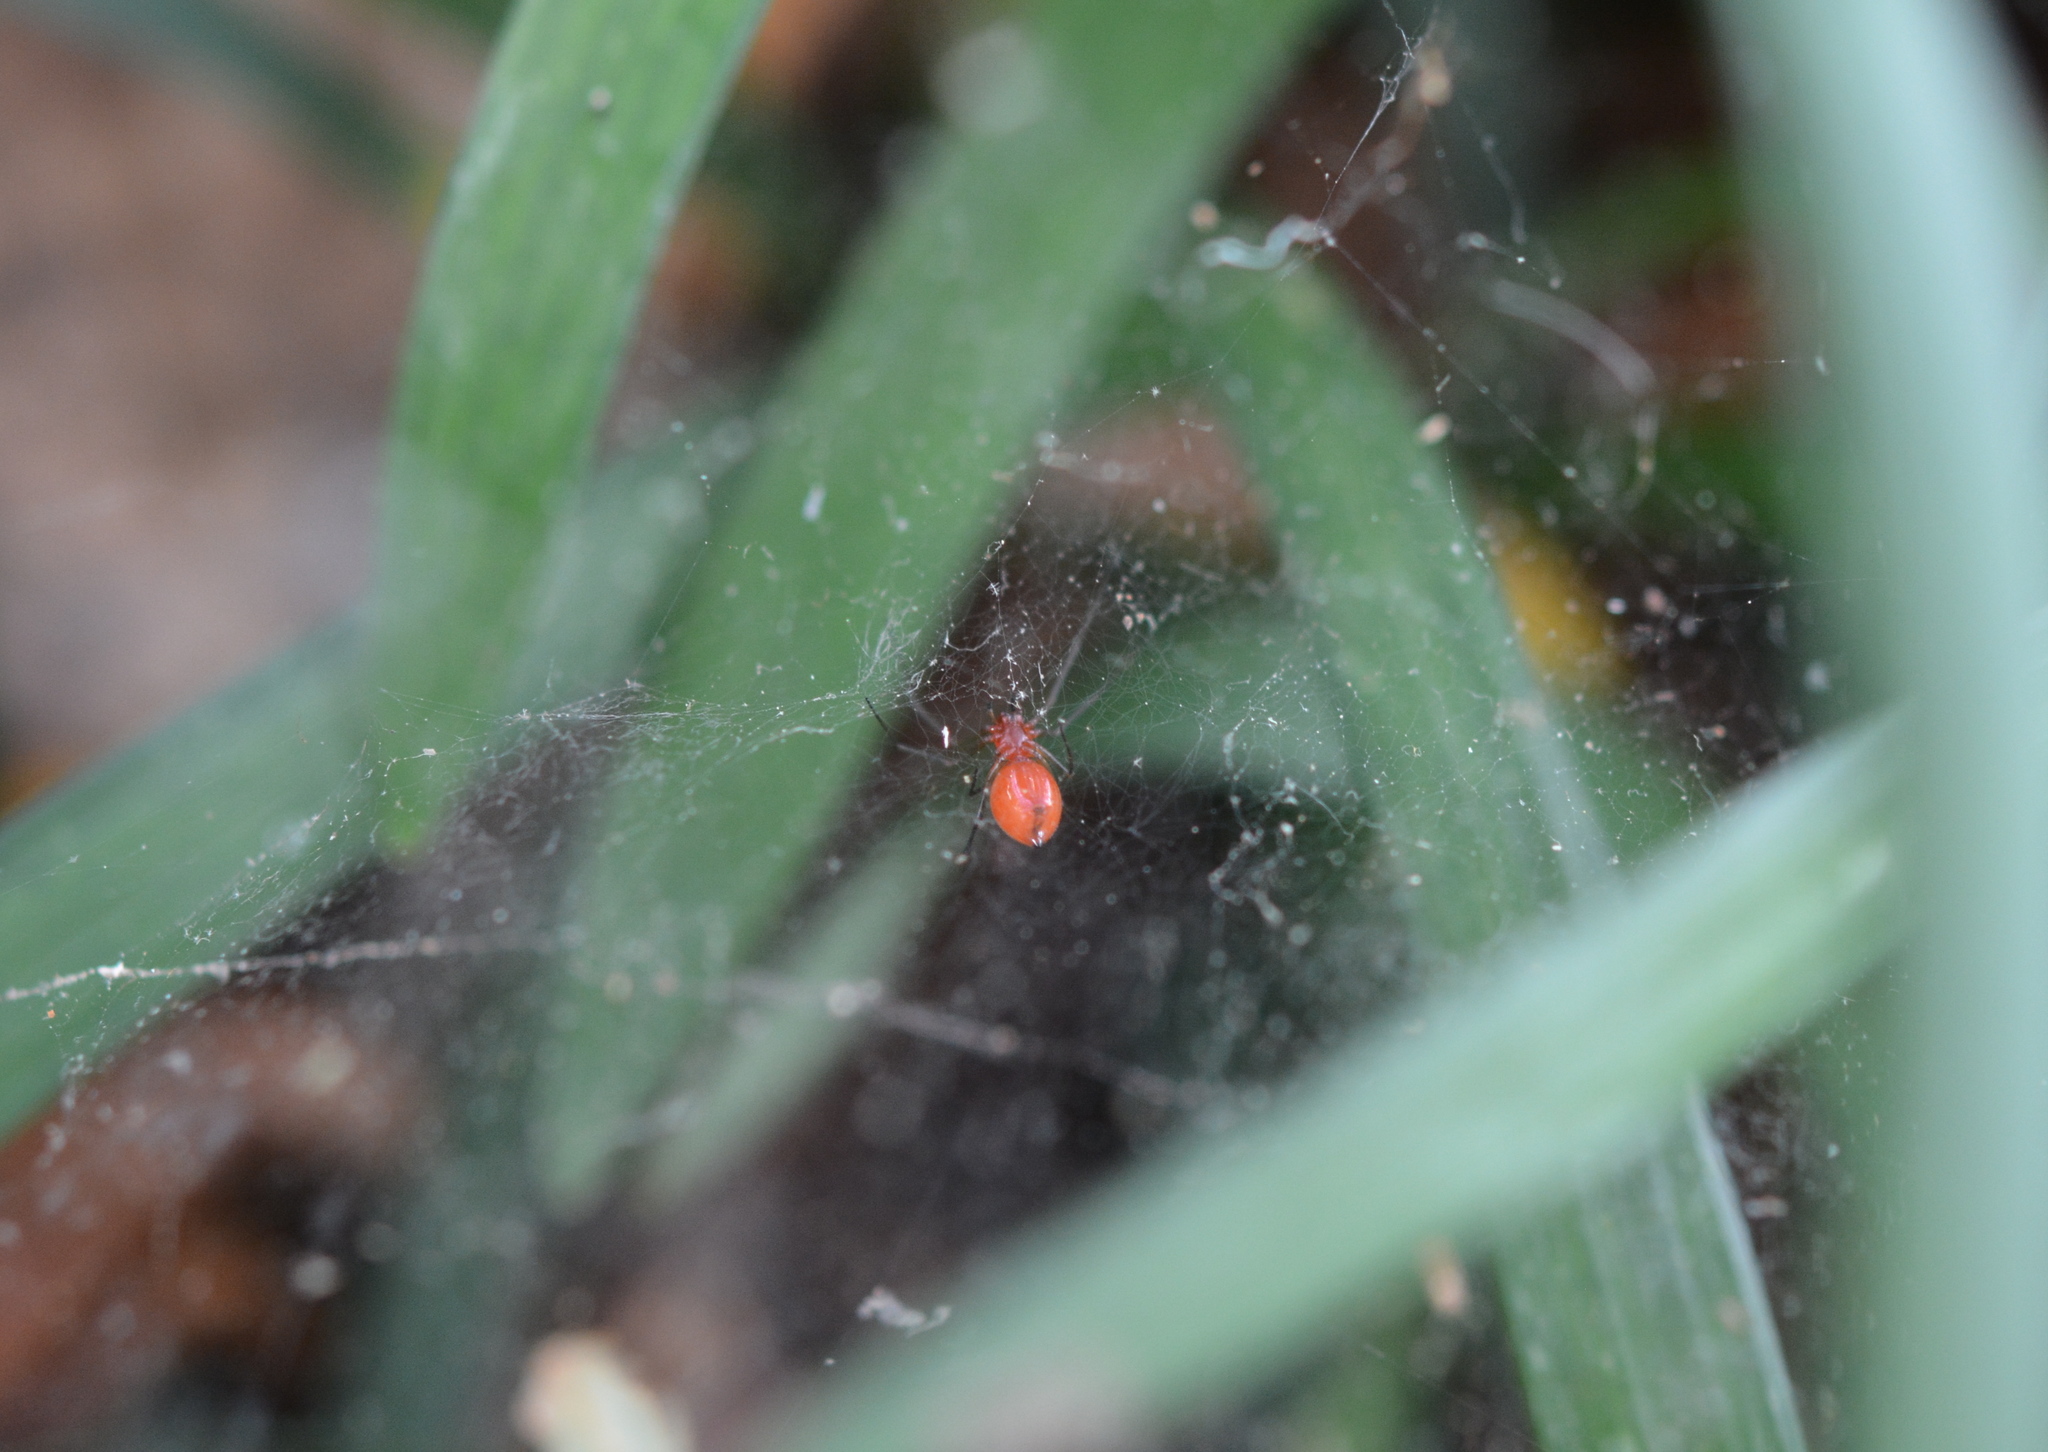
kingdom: Animalia
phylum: Arthropoda
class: Arachnida
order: Araneae
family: Linyphiidae
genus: Florinda
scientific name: Florinda coccinea
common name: Black-tailed red sheetweaver
